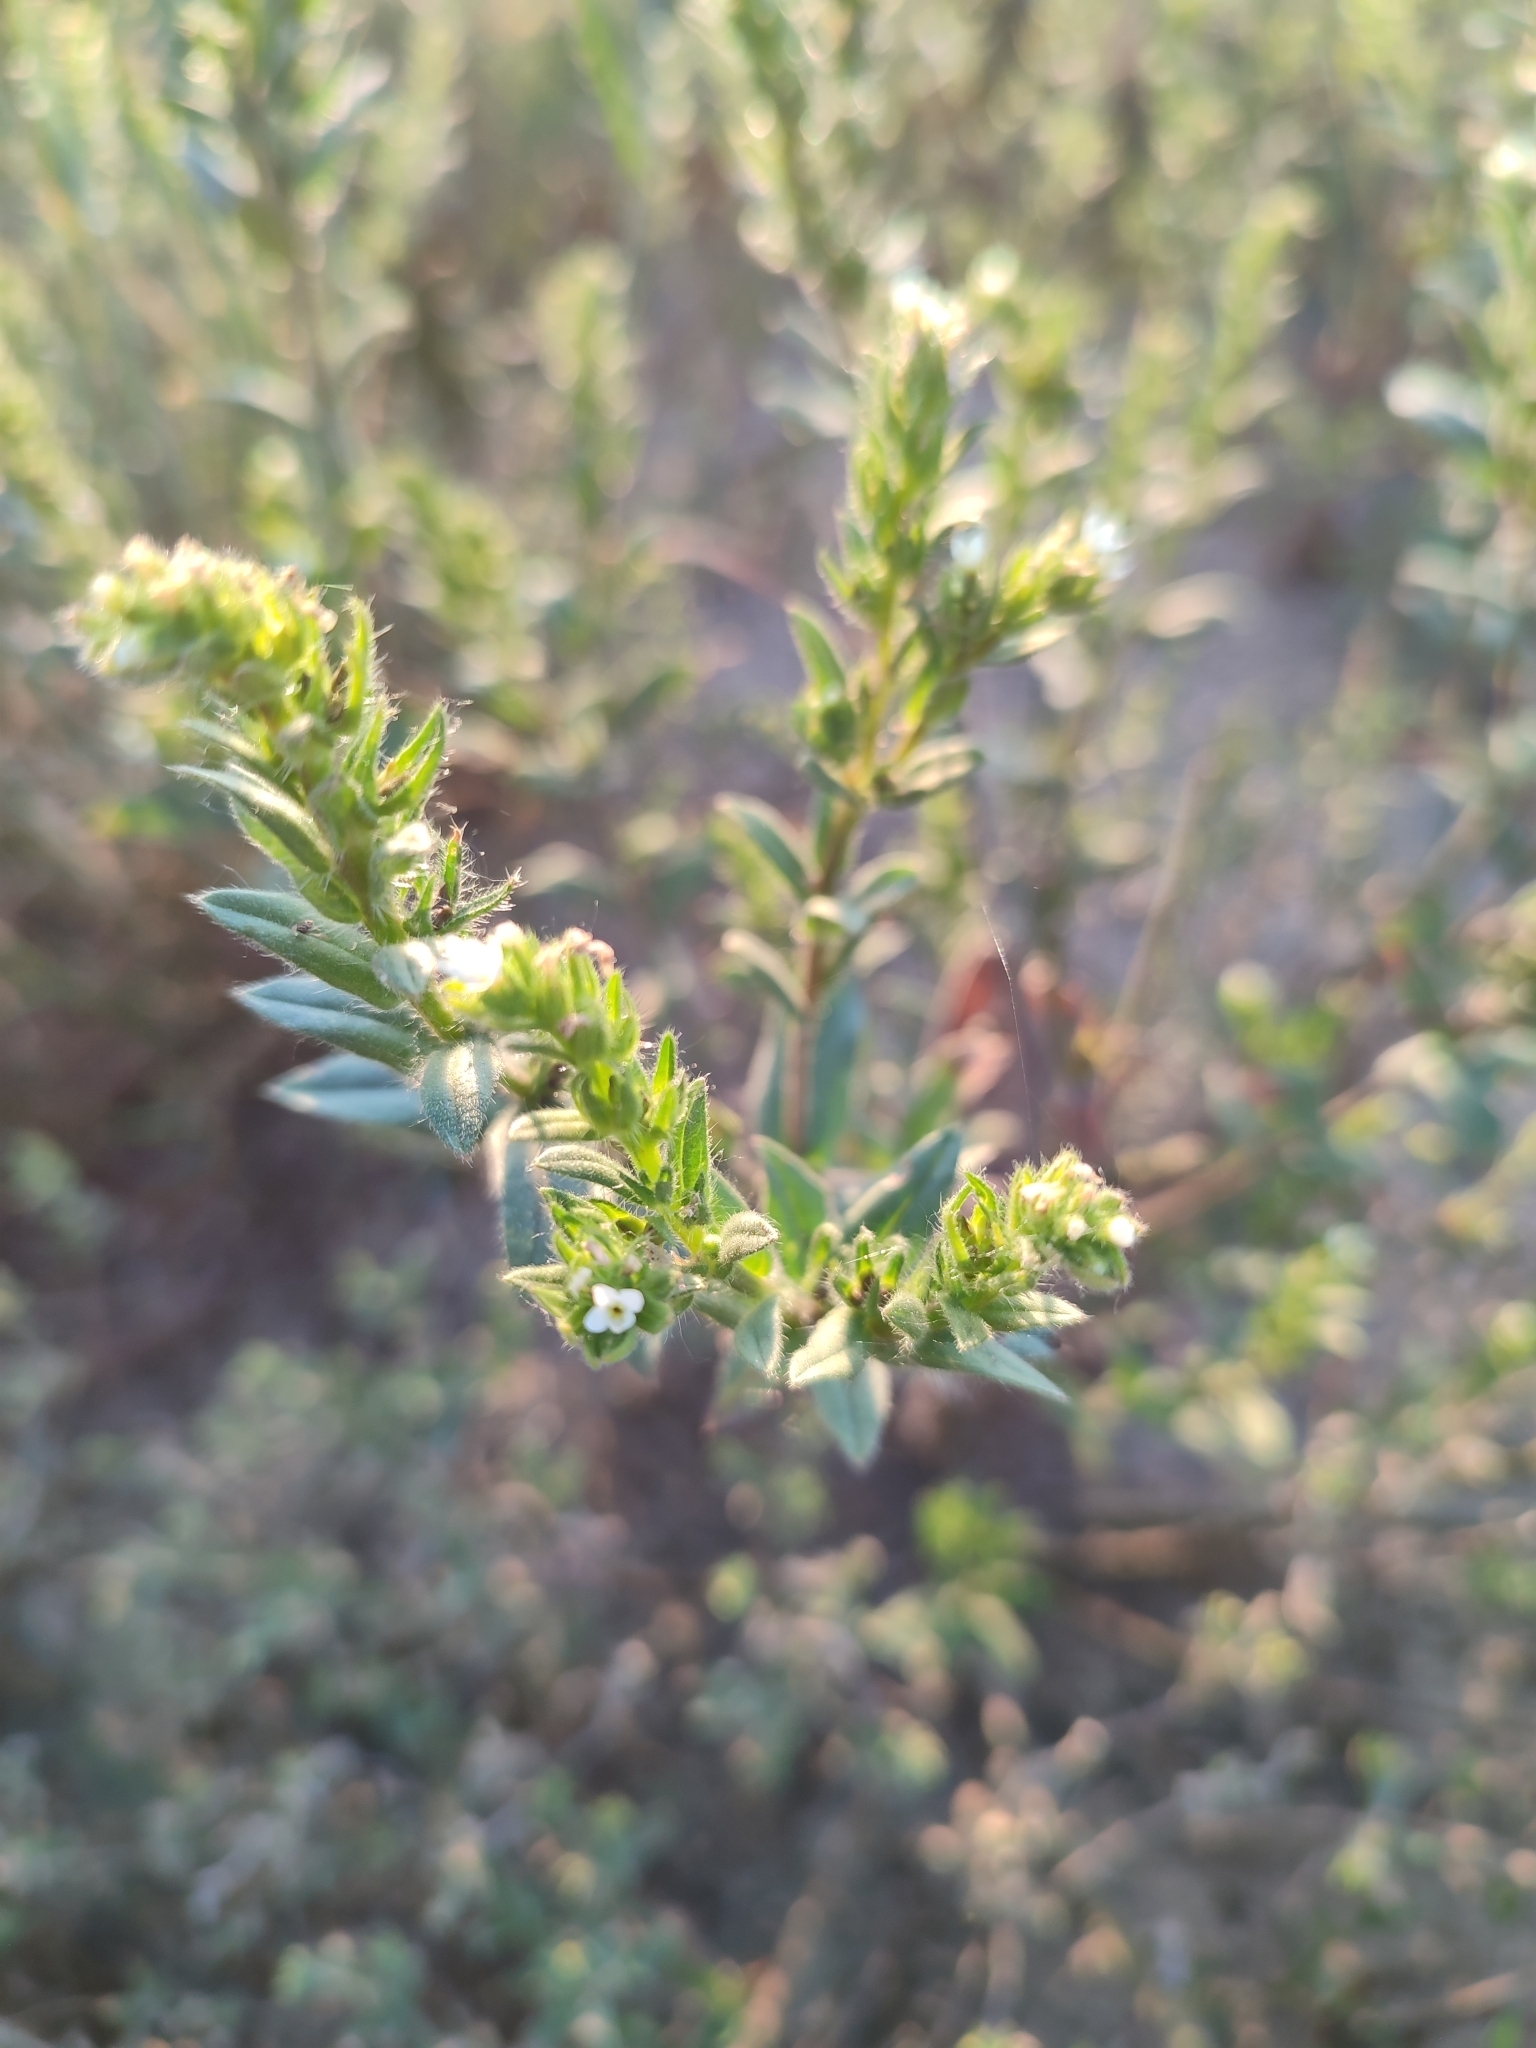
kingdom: Plantae
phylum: Tracheophyta
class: Magnoliopsida
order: Boraginales
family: Boraginaceae
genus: Buglossoides
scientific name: Buglossoides arvensis
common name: Corn gromwell
